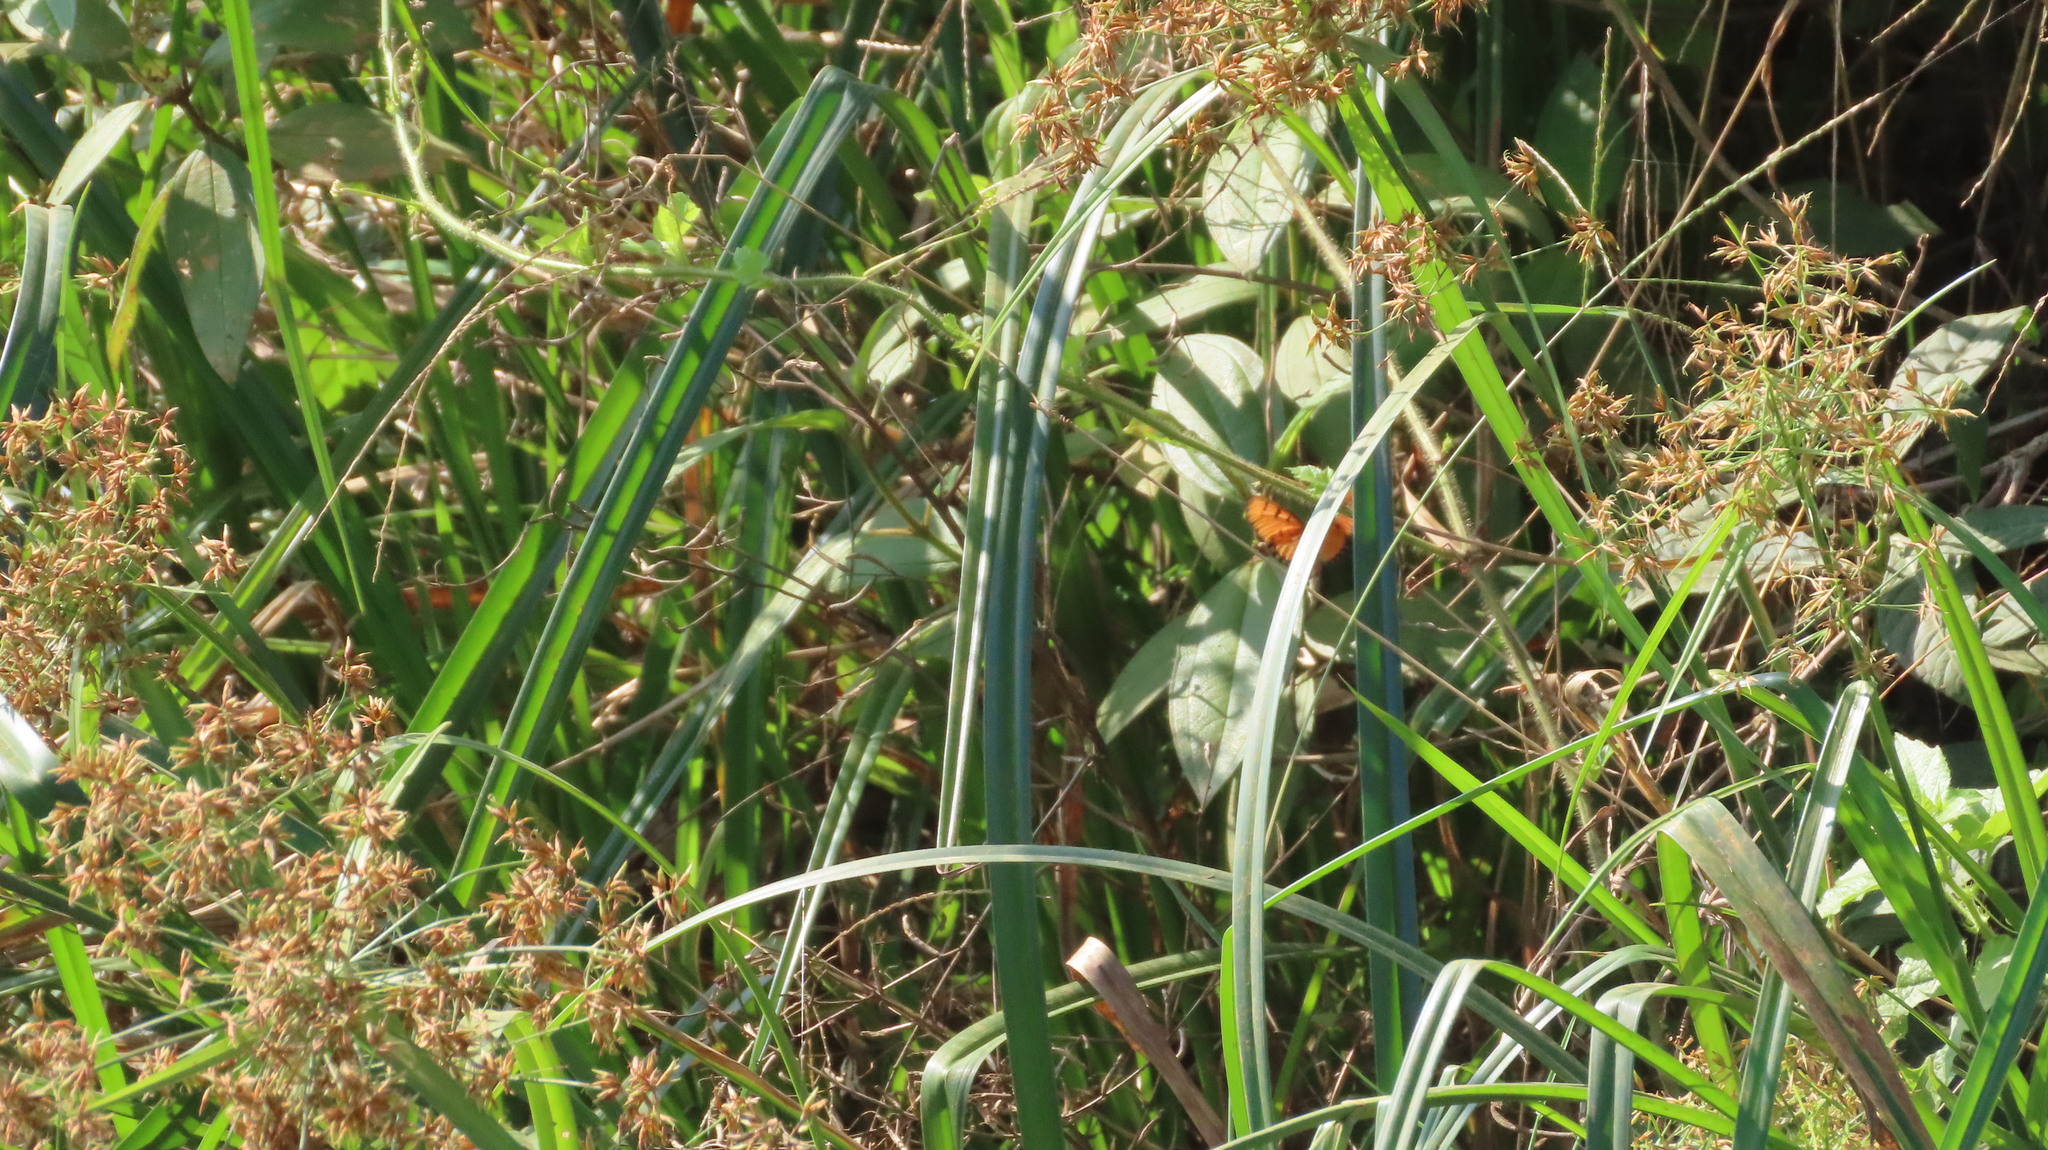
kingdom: Animalia
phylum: Arthropoda
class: Insecta
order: Lepidoptera
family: Nymphalidae
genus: Acraea
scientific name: Acraea terpsicore
